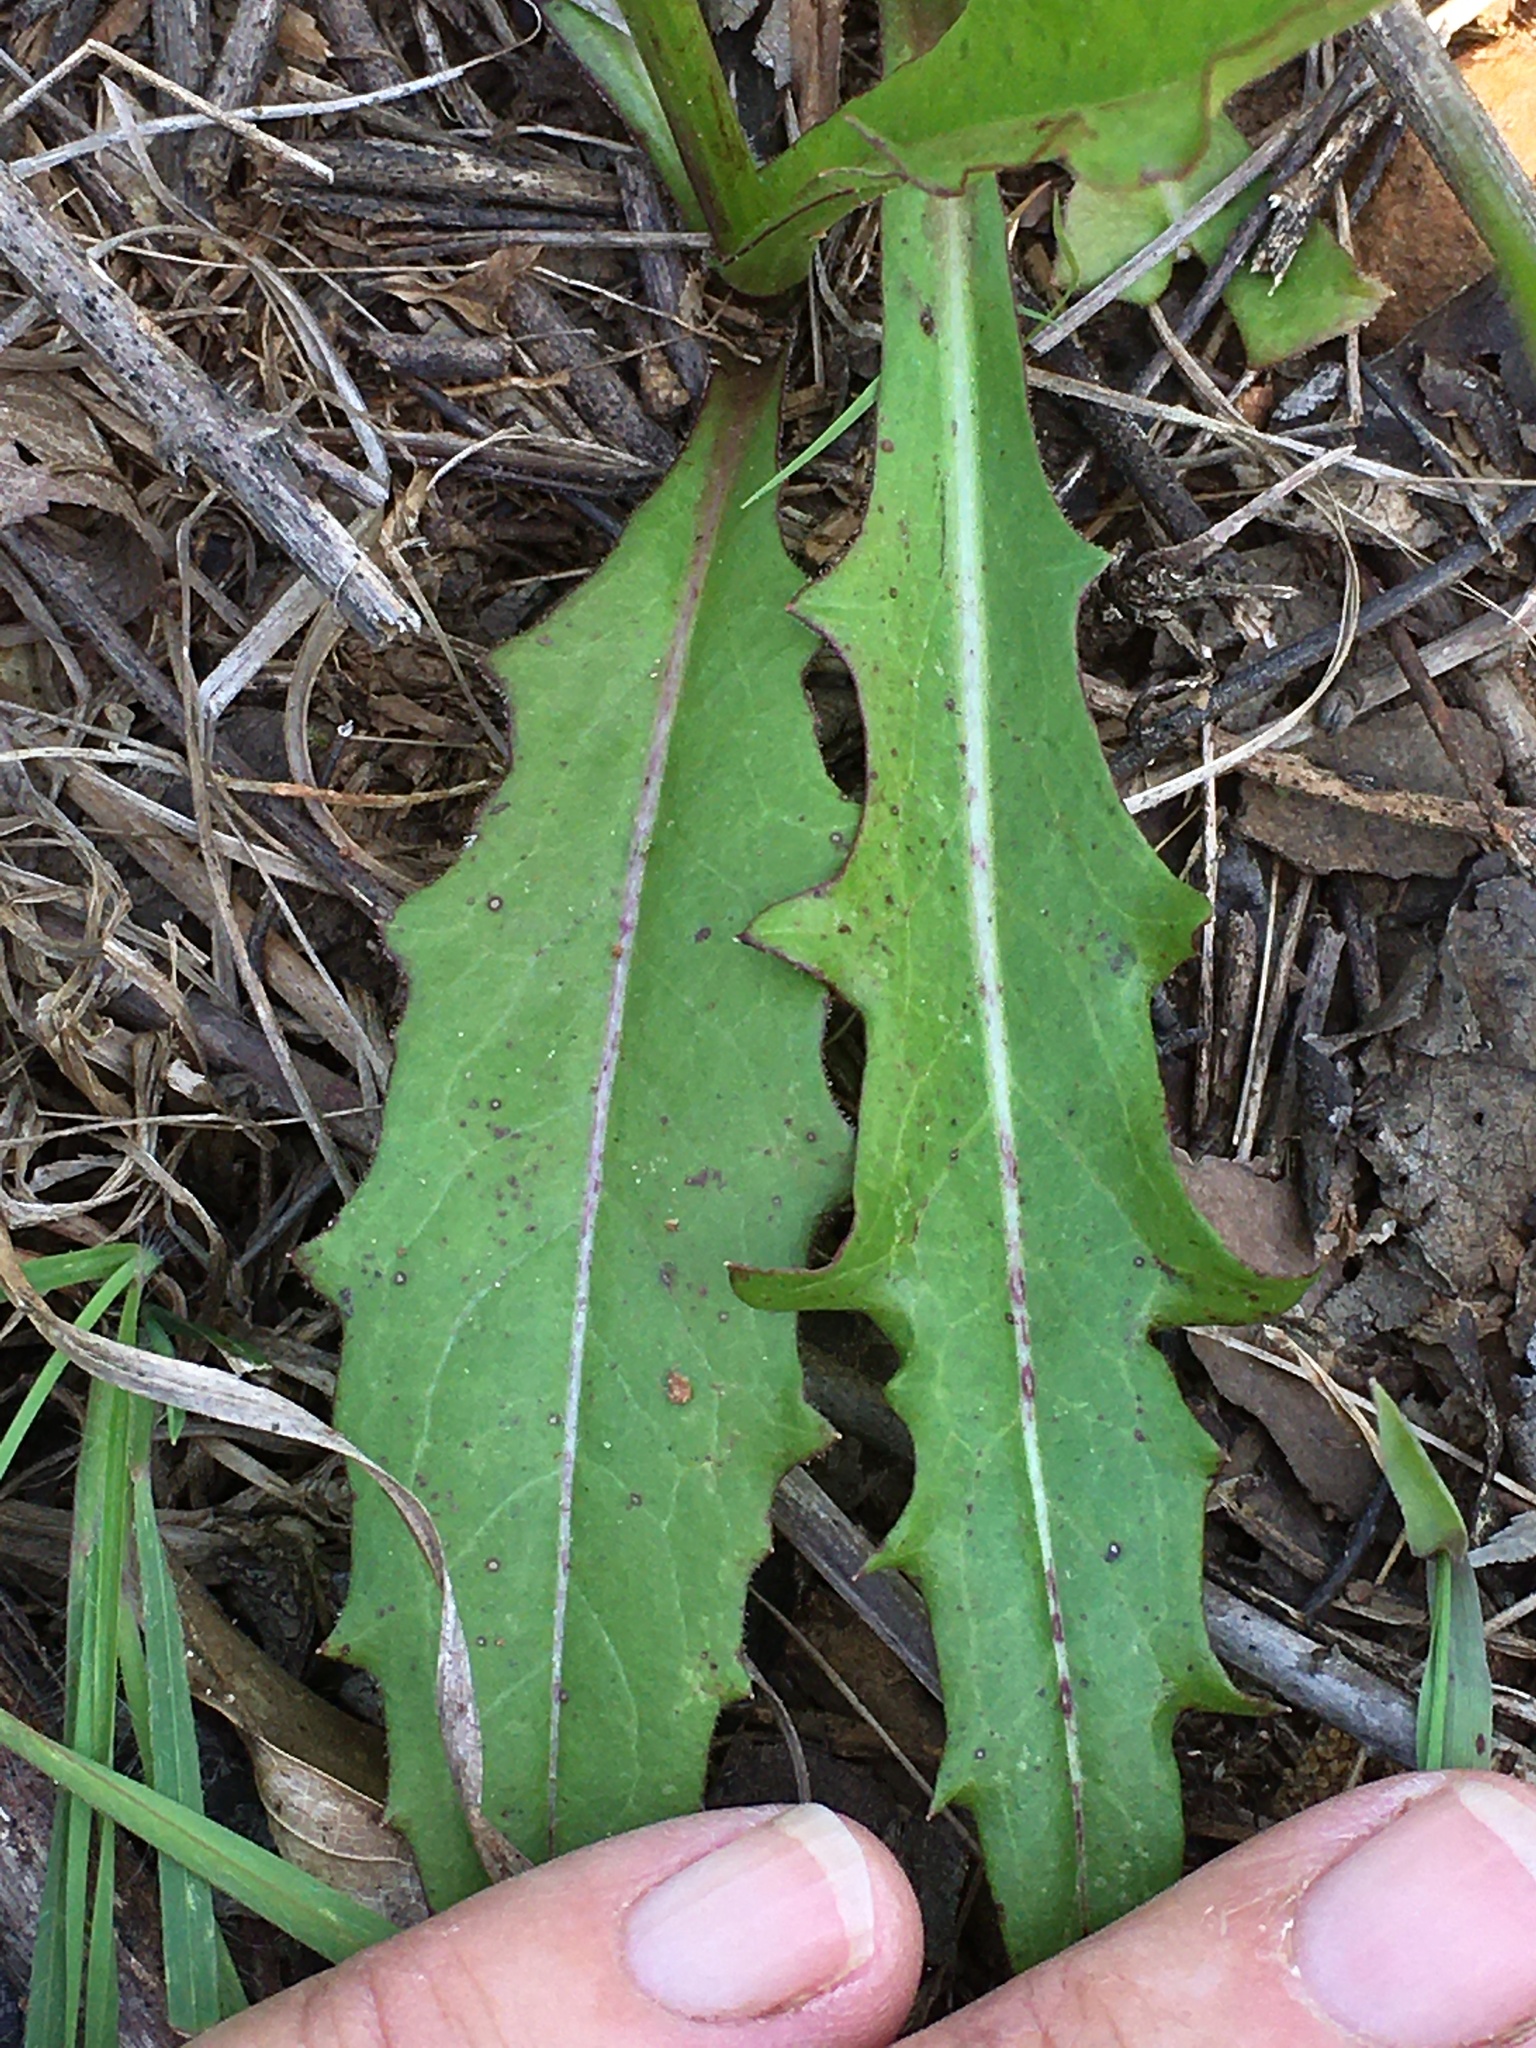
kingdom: Plantae
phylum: Tracheophyta
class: Magnoliopsida
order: Asterales
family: Asteraceae
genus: Pyrrhopappus
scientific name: Pyrrhopappus carolinianus
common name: Carolina desert-chicory
